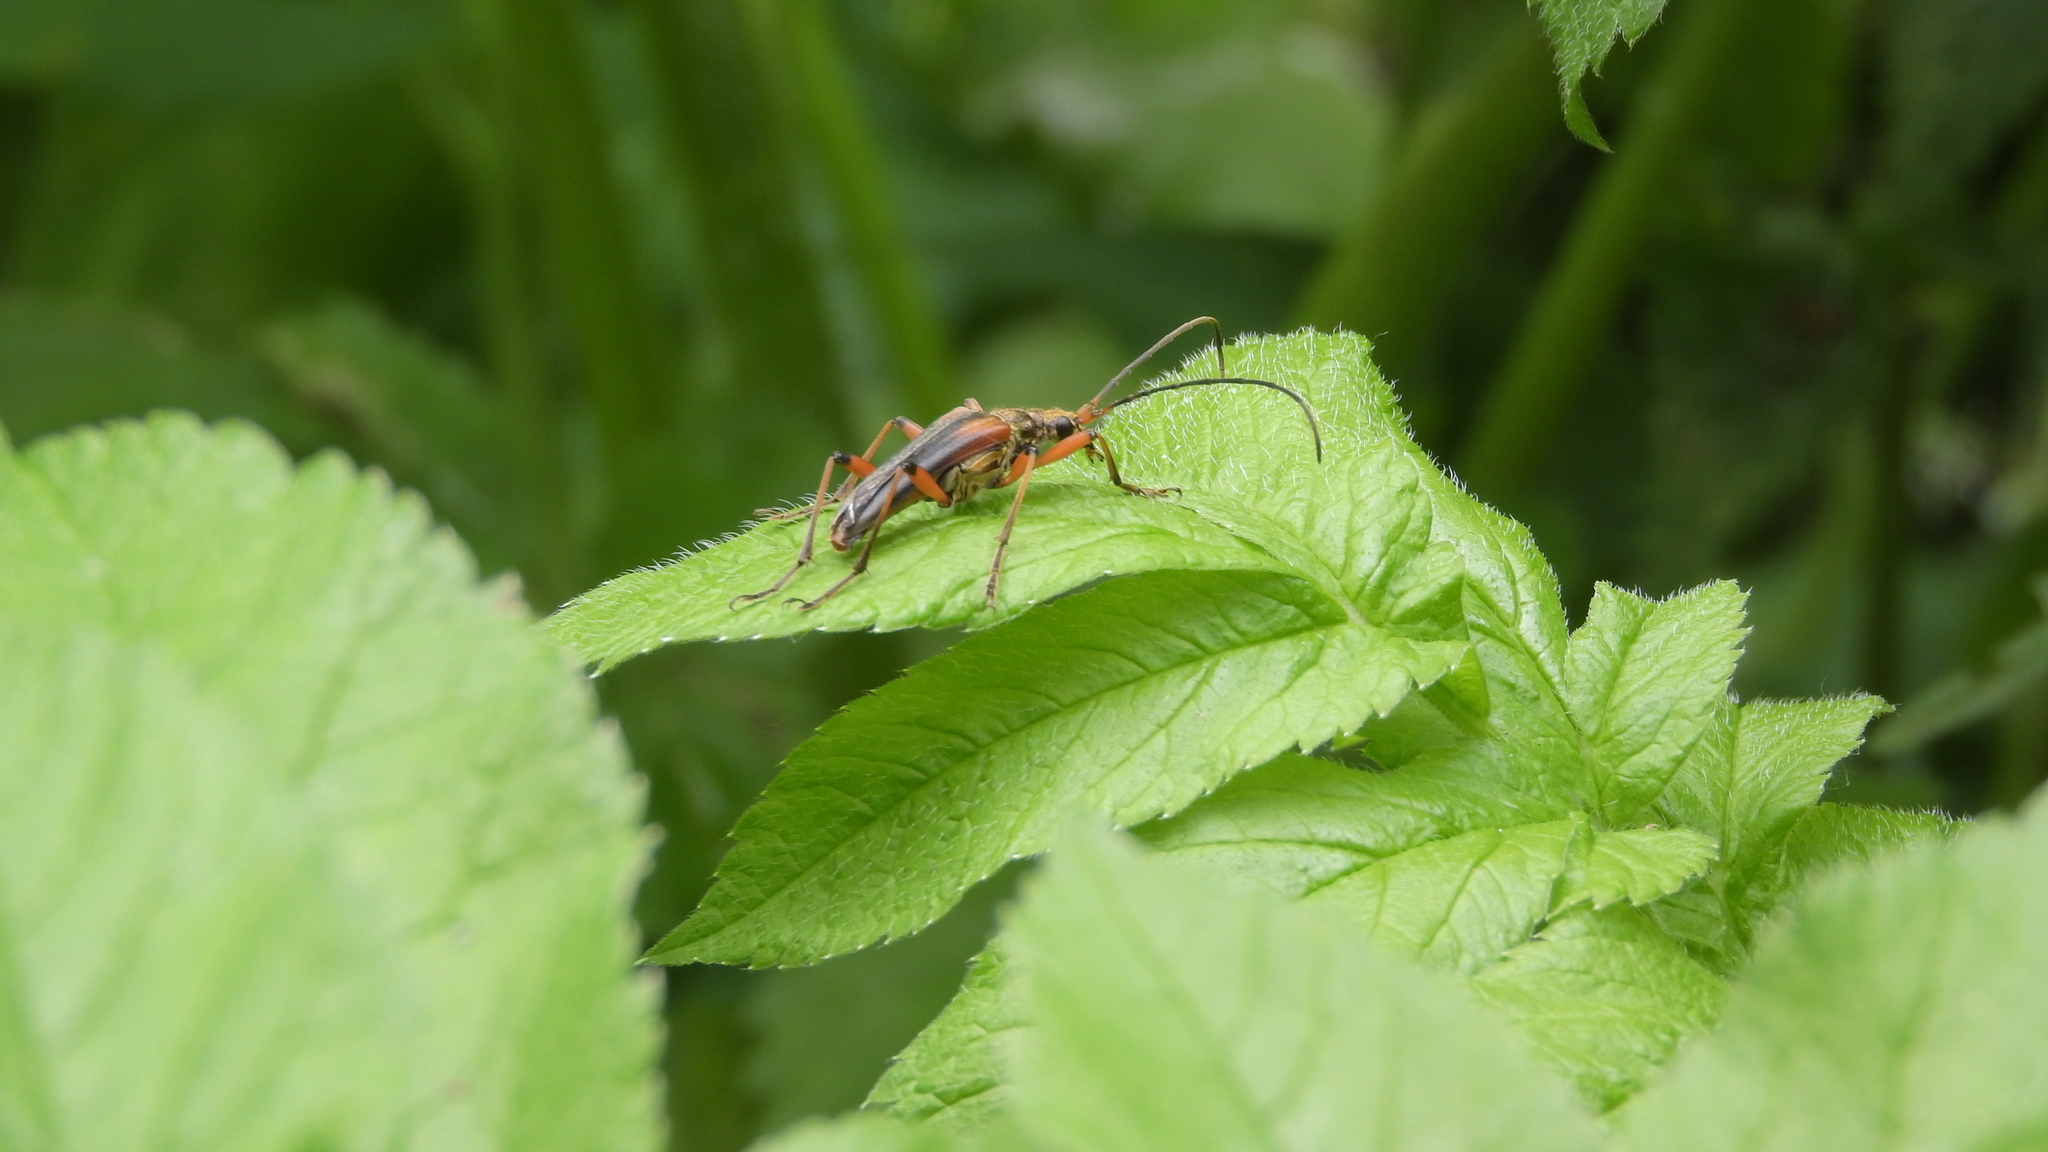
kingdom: Animalia
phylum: Arthropoda
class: Insecta
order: Coleoptera
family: Cerambycidae
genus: Stenocorus
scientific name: Stenocorus meridianus
